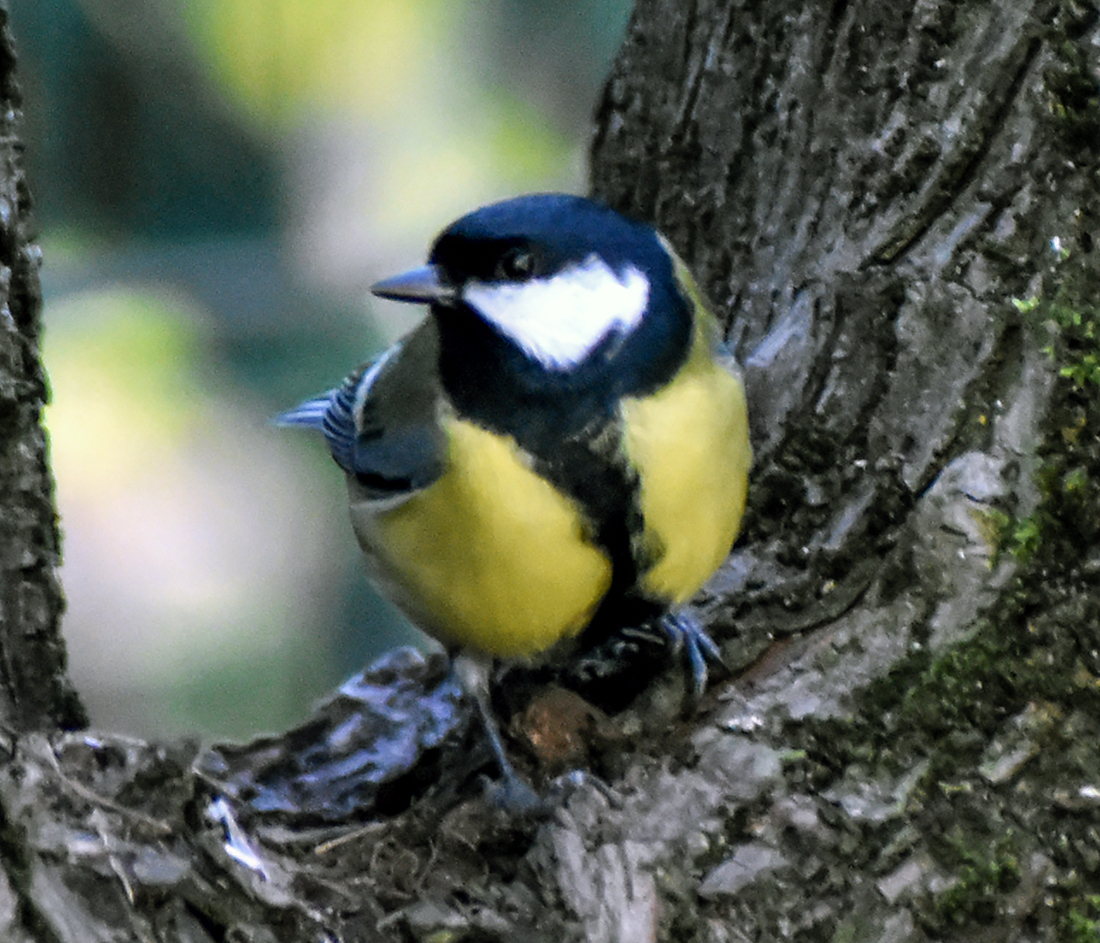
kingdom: Animalia
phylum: Chordata
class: Aves
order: Passeriformes
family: Paridae
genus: Parus
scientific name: Parus major
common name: Great tit
